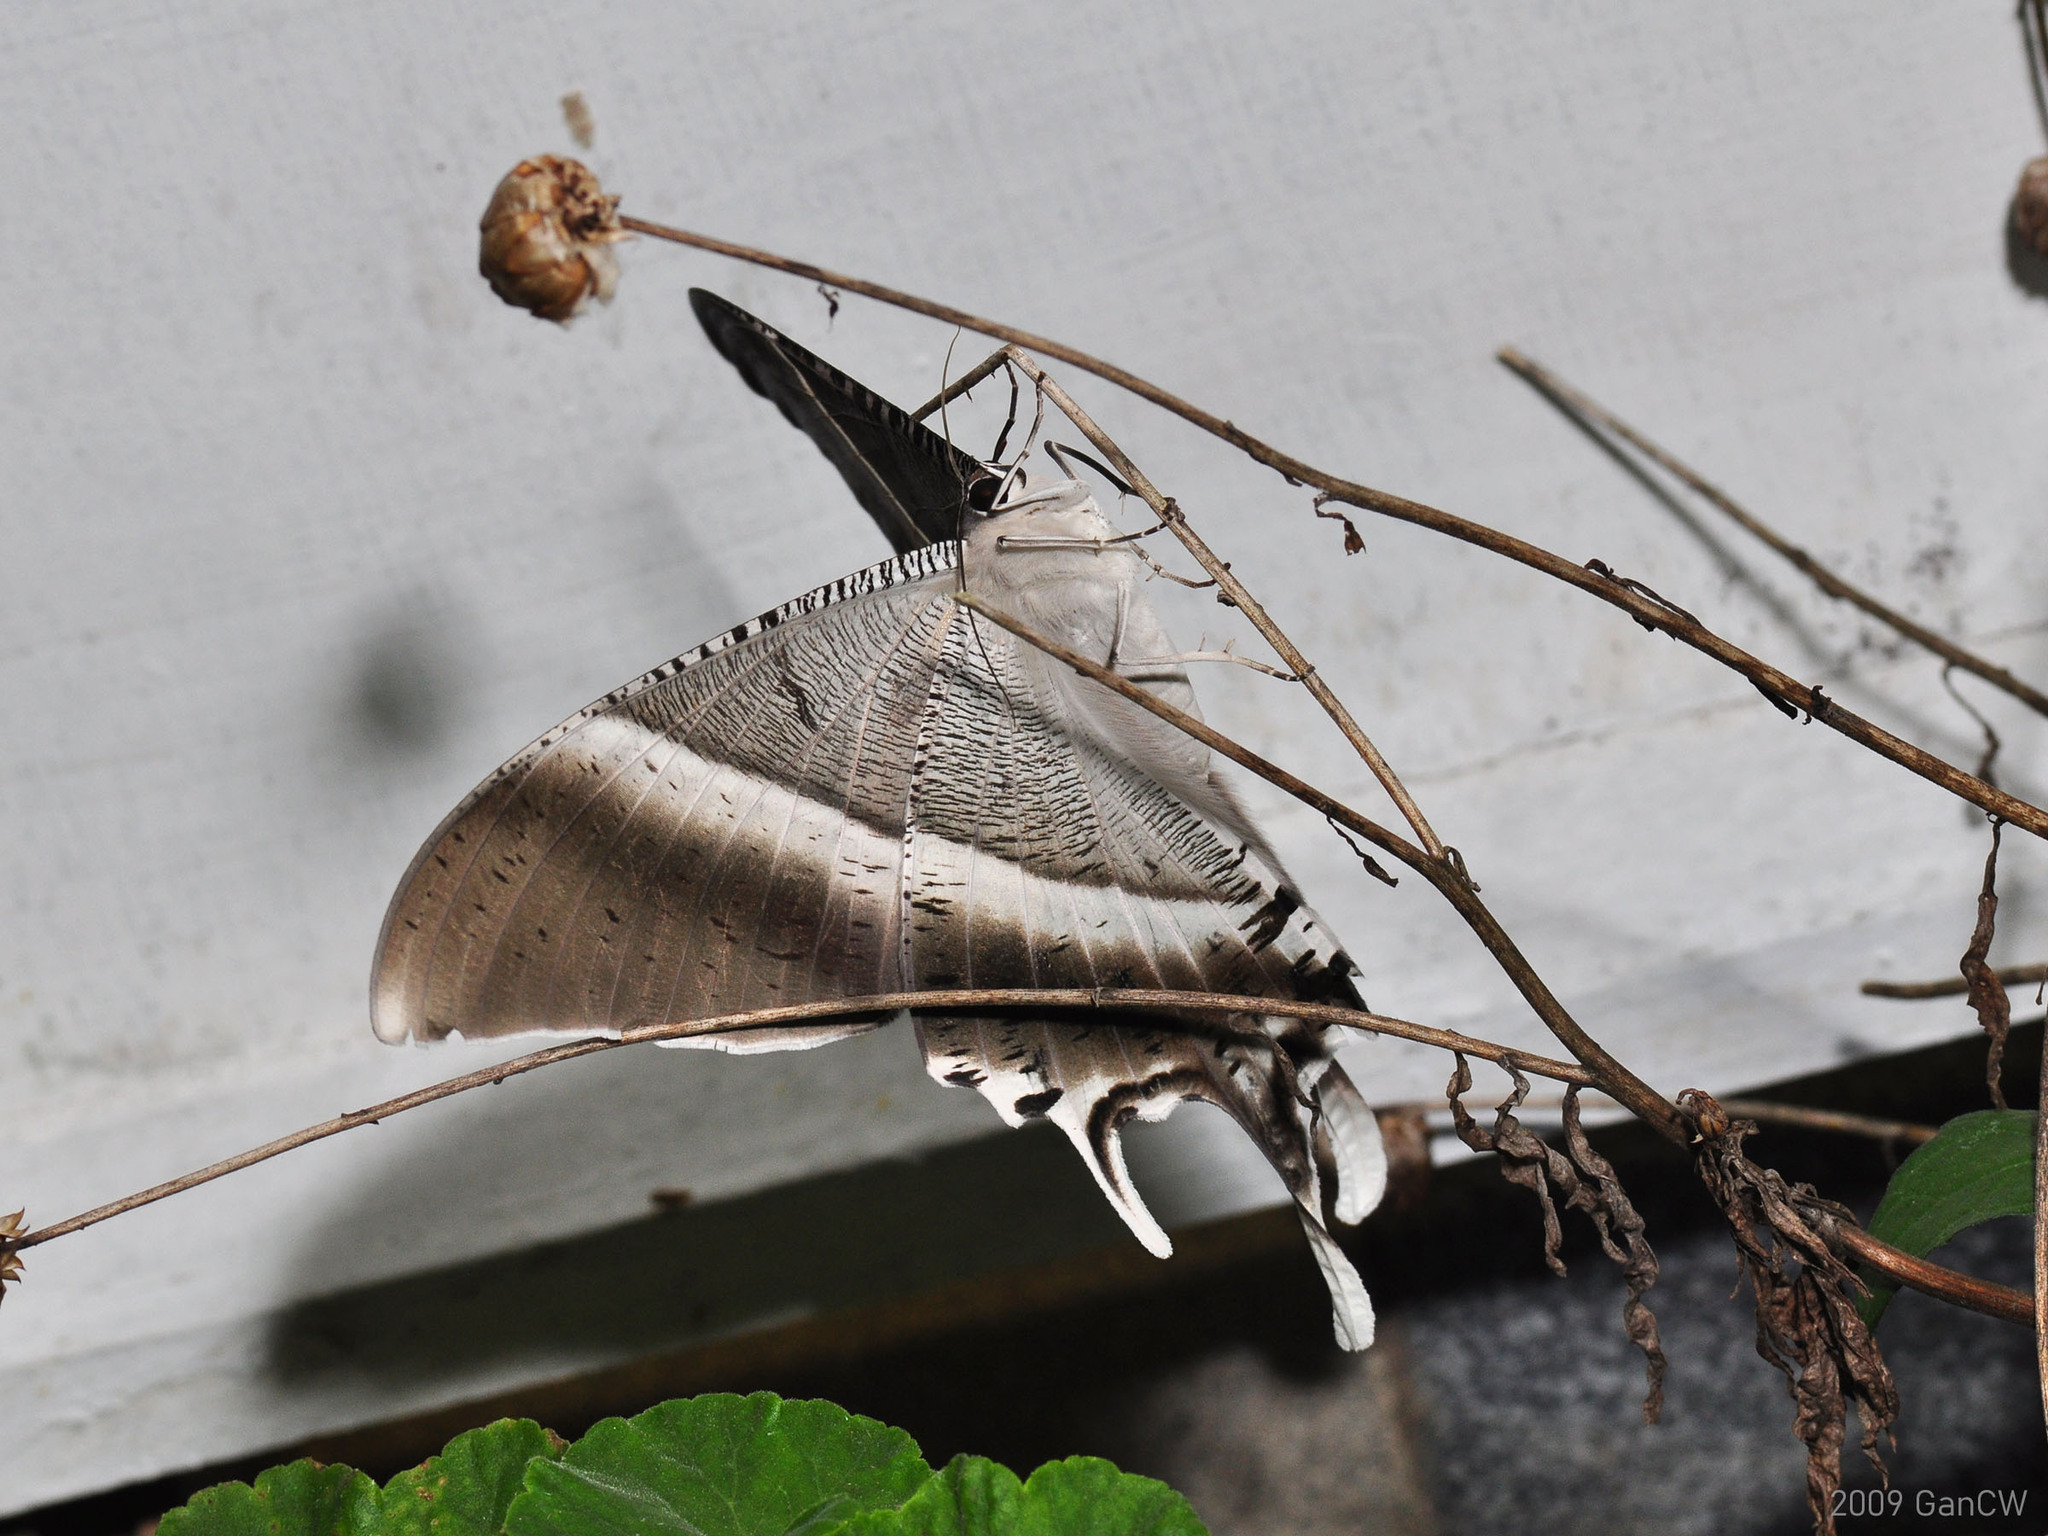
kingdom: Animalia
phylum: Arthropoda
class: Insecta
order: Lepidoptera
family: Uraniidae
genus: Lyssa
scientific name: Lyssa zampa
